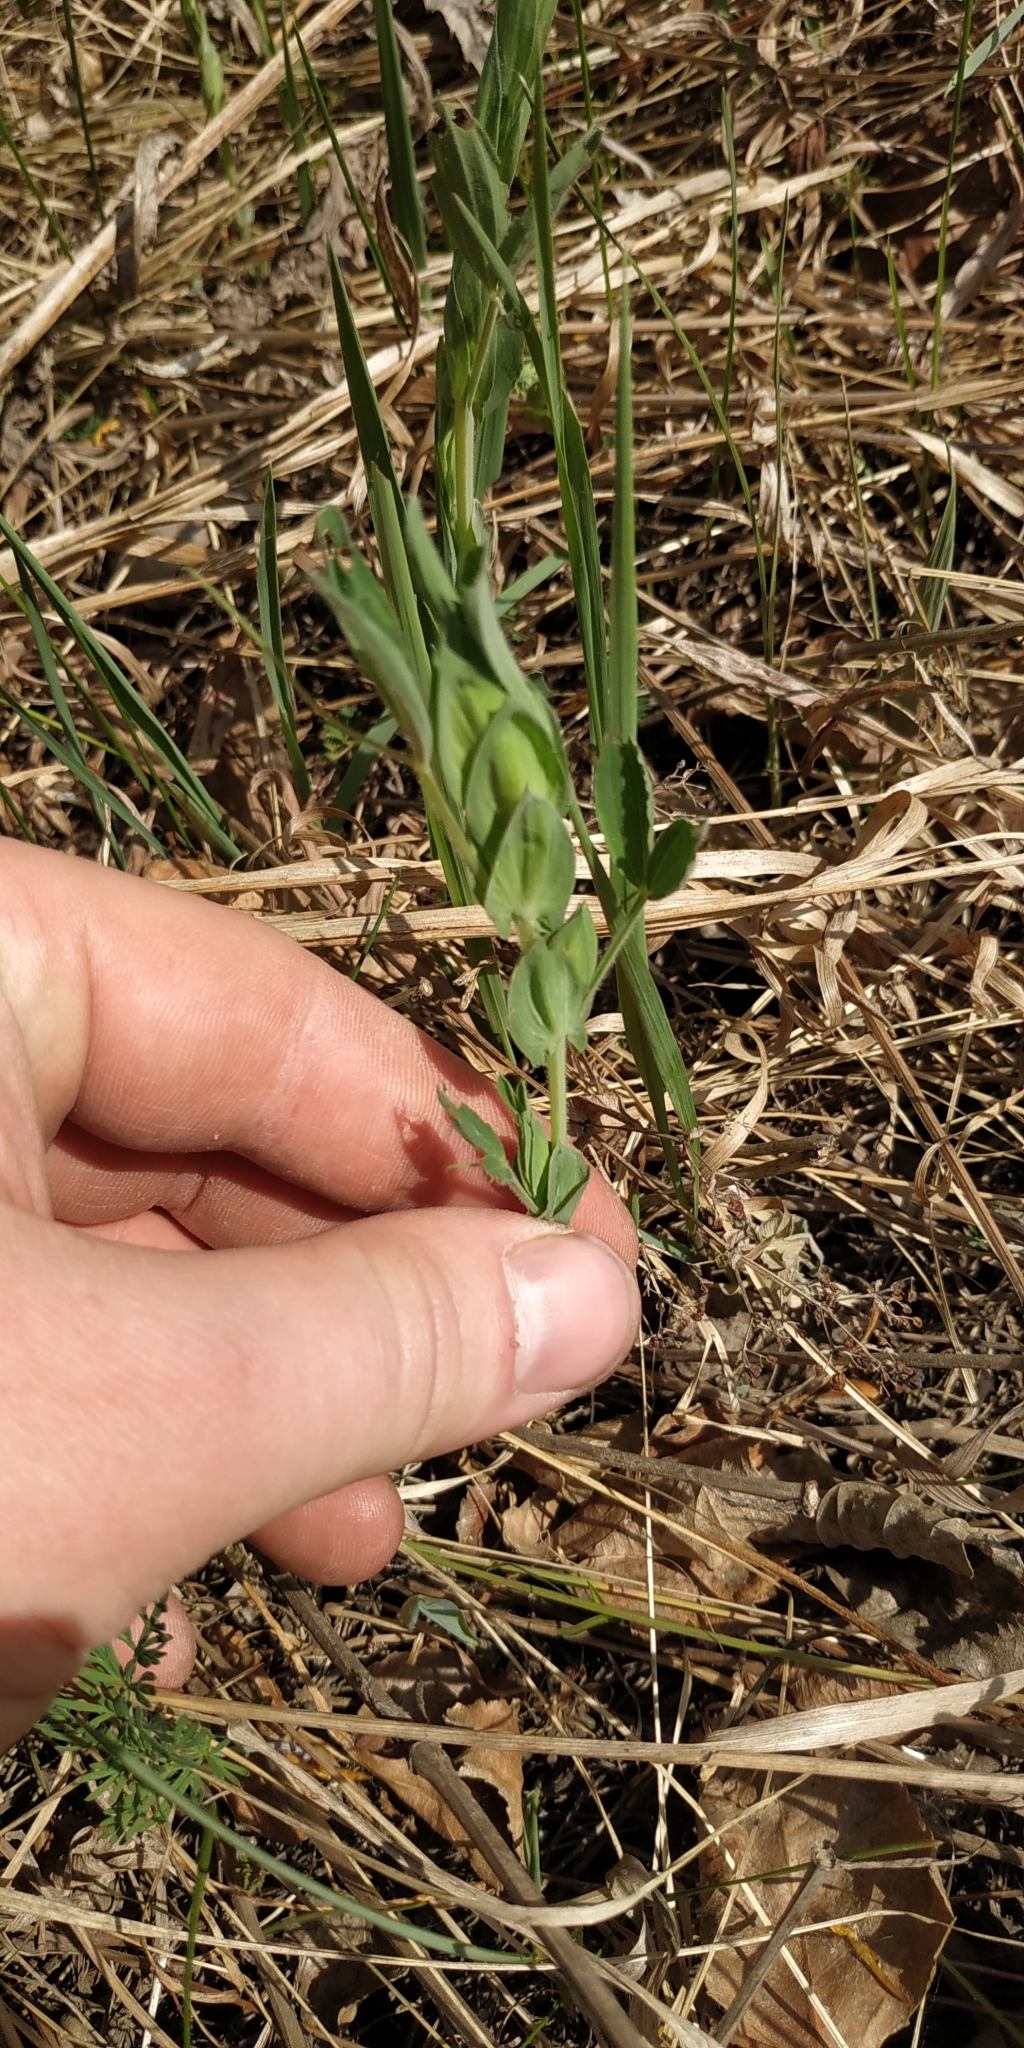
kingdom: Plantae
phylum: Tracheophyta
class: Magnoliopsida
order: Fabales
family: Fabaceae
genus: Lathyrus
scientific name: Lathyrus pratensis
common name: Meadow vetchling
